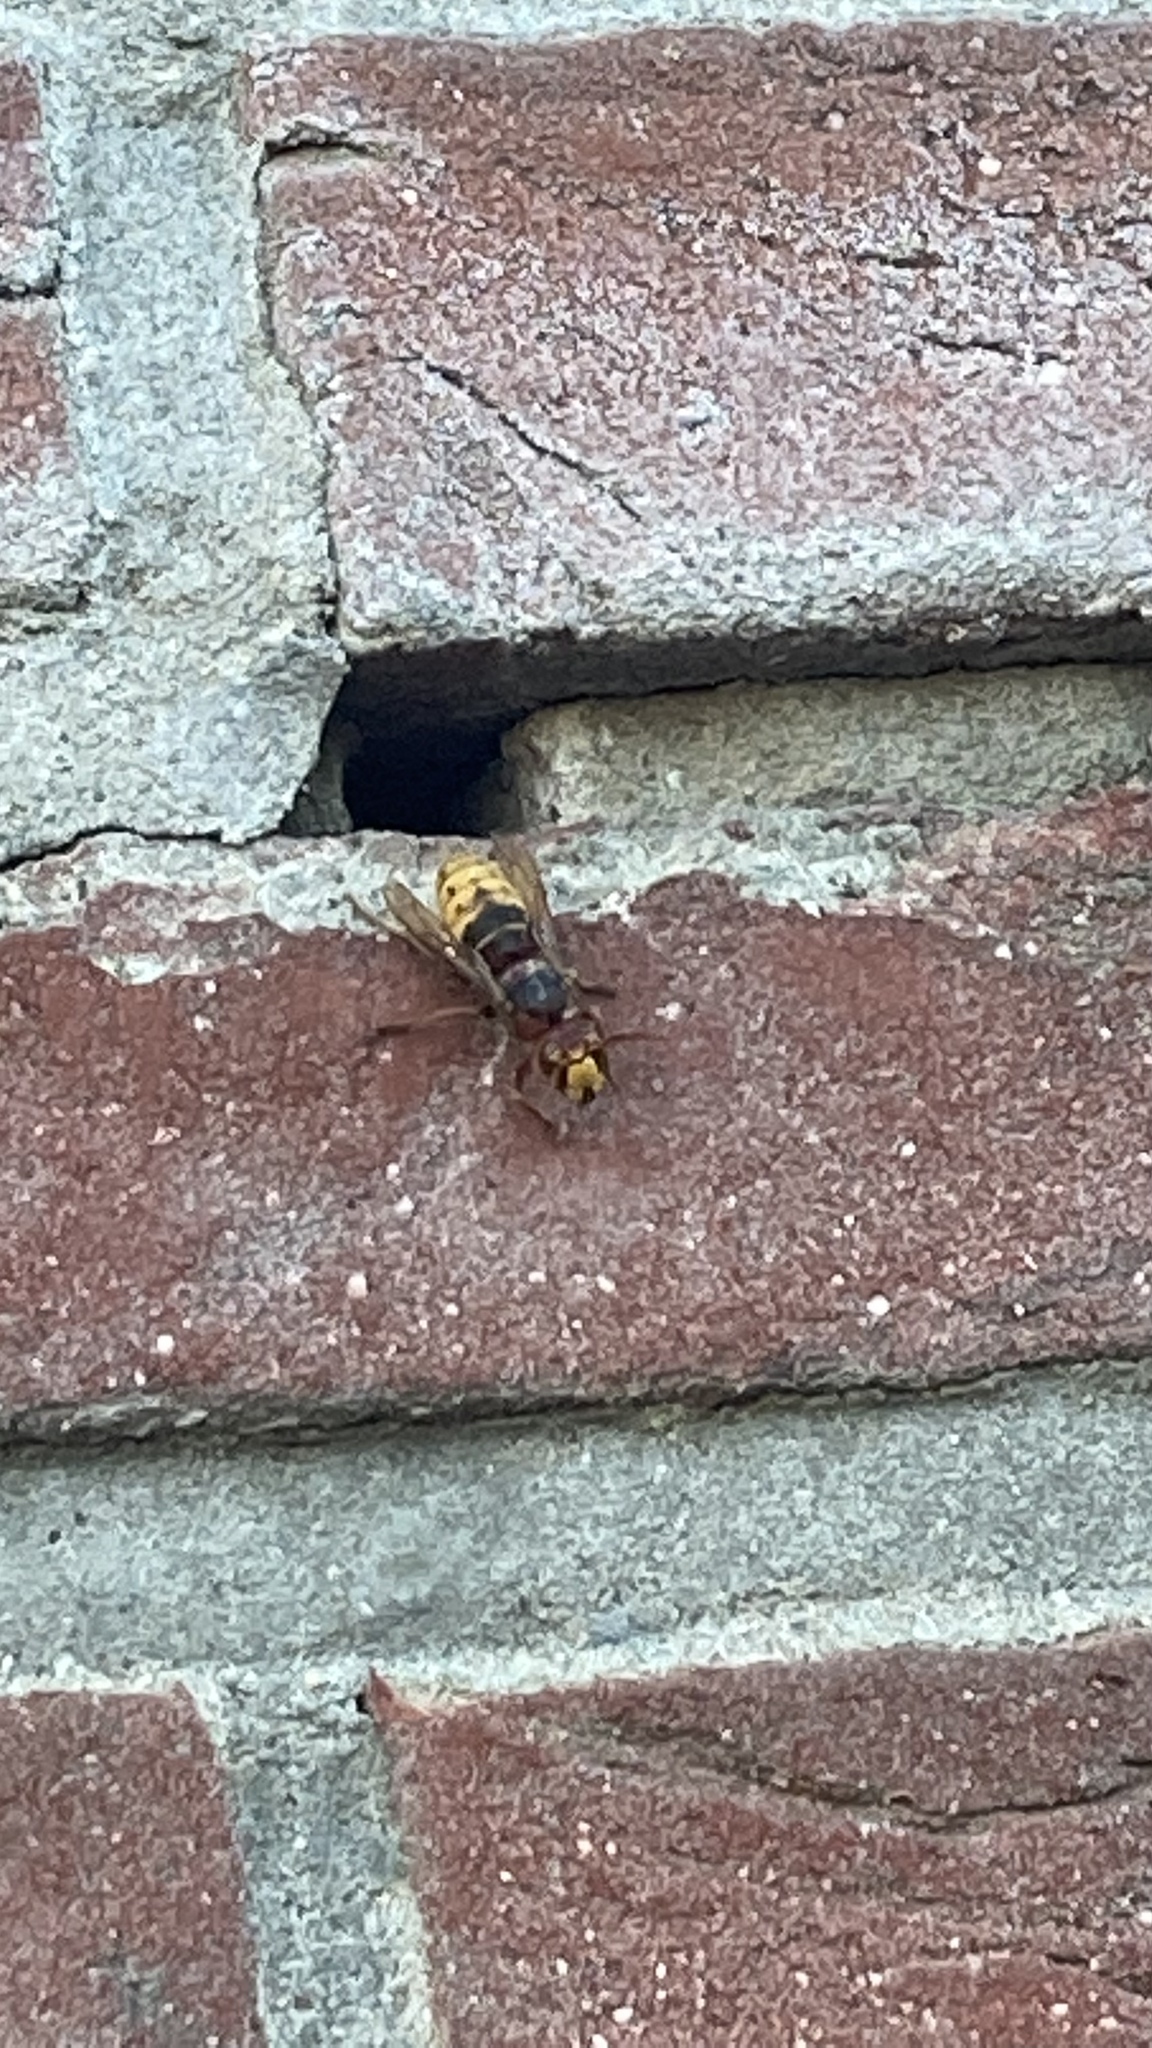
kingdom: Animalia
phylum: Arthropoda
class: Insecta
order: Hymenoptera
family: Vespidae
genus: Vespa
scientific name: Vespa crabro
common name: Hornet
